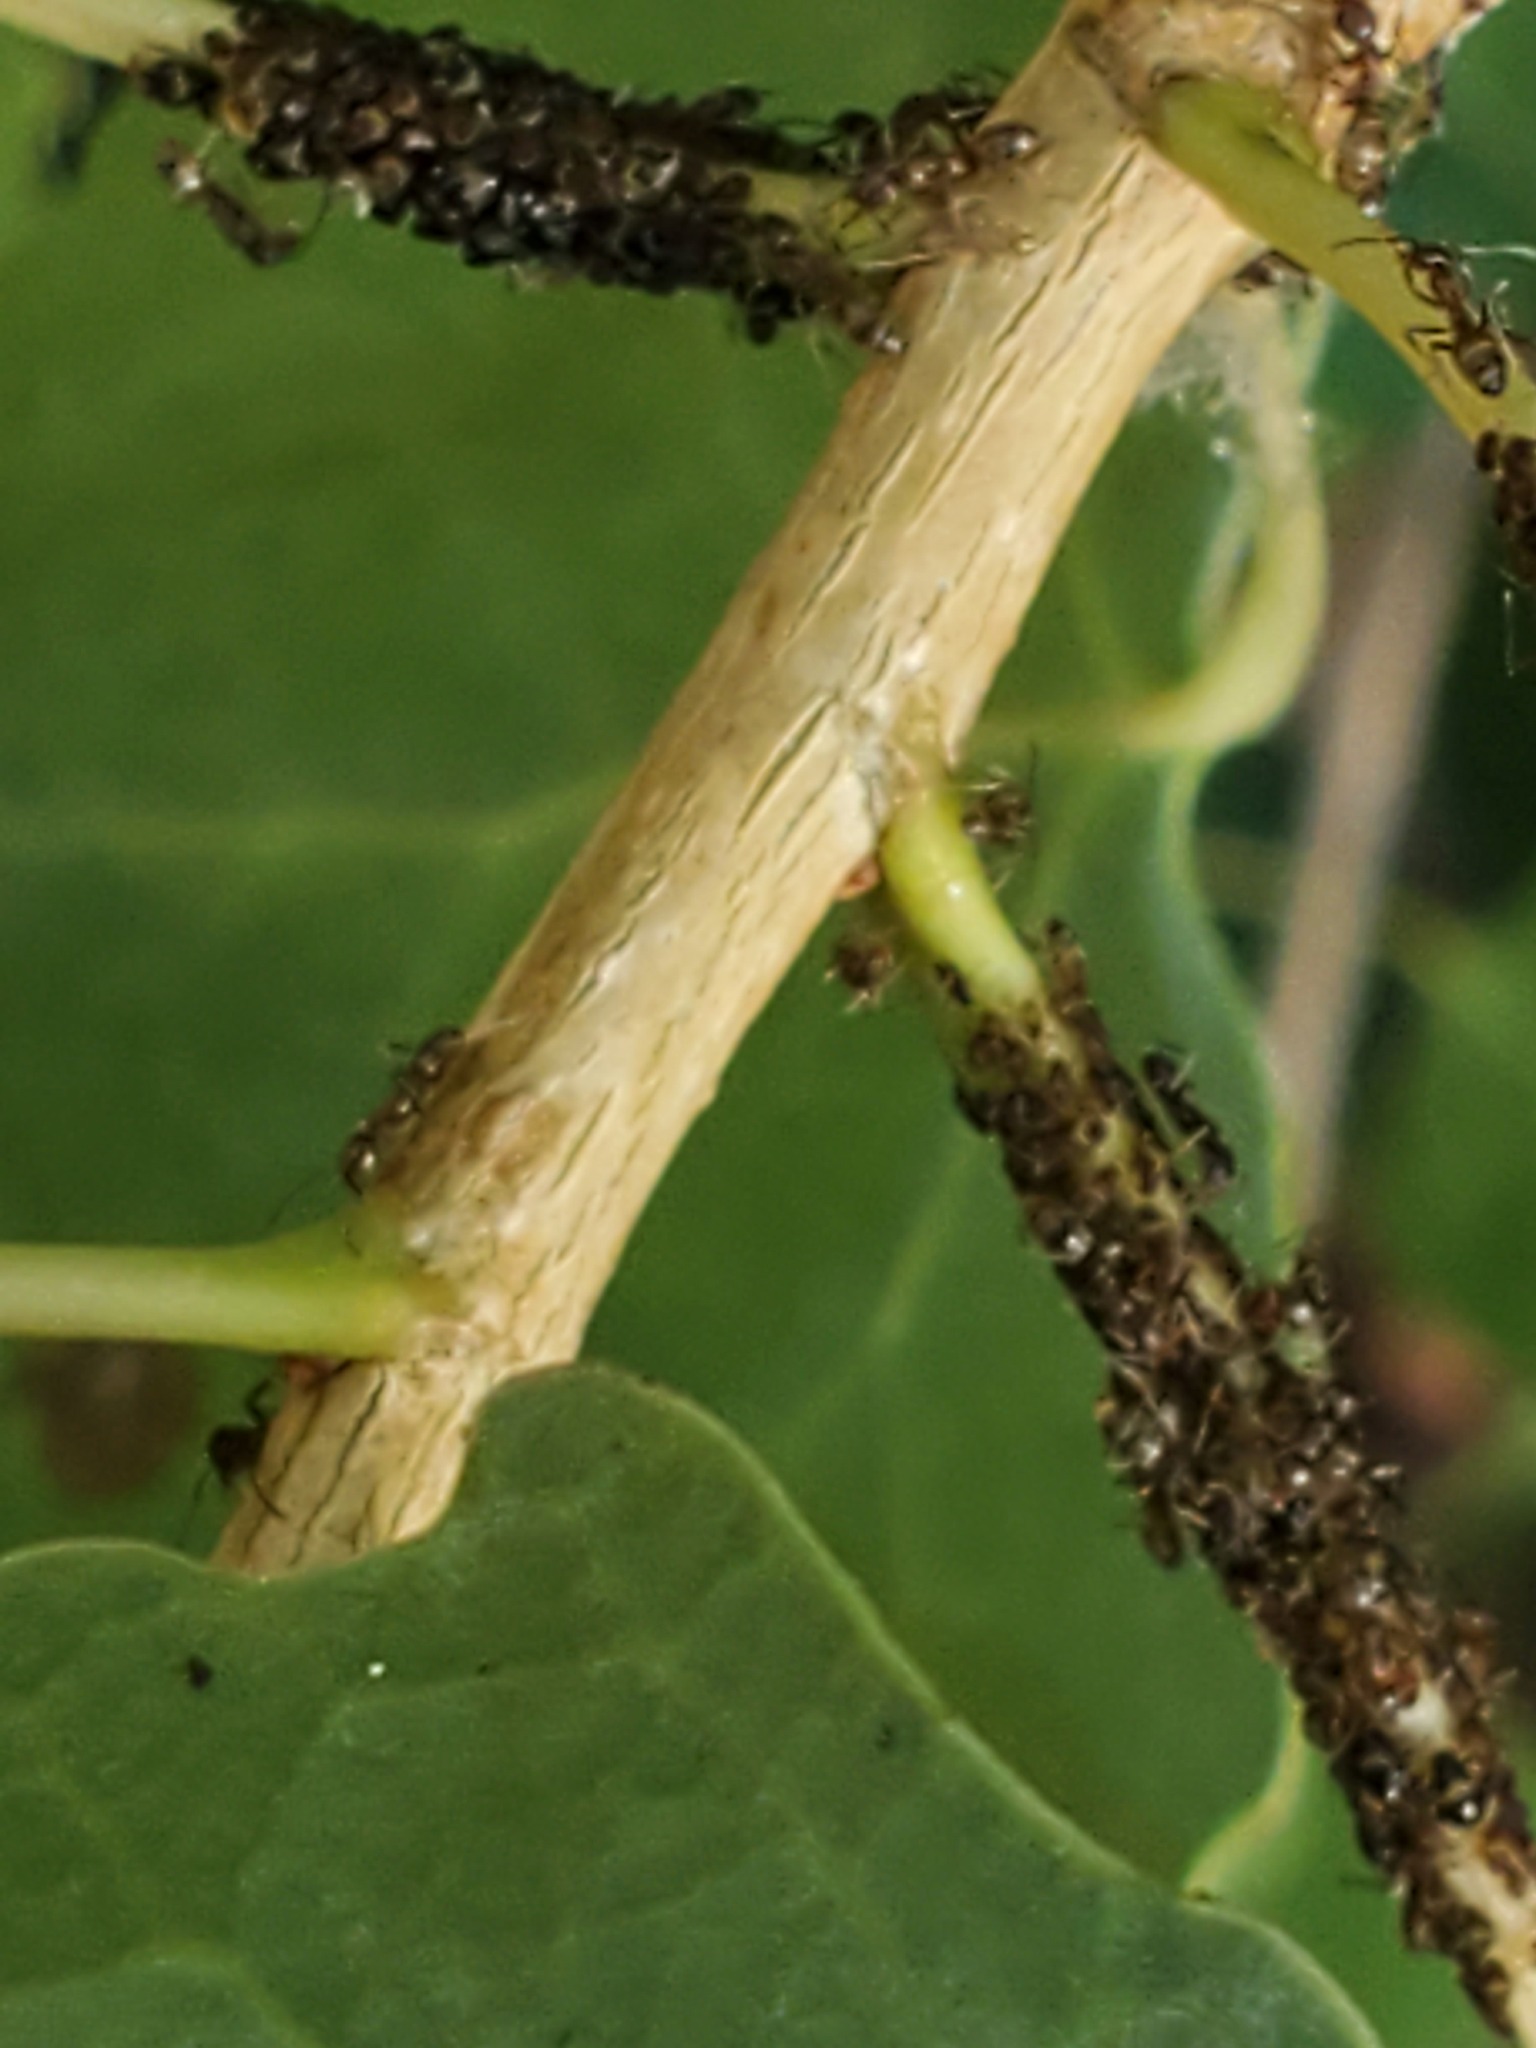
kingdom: Animalia
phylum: Arthropoda
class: Insecta
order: Hymenoptera
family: Formicidae
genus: Linepithema
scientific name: Linepithema humile
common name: Argentine ant
